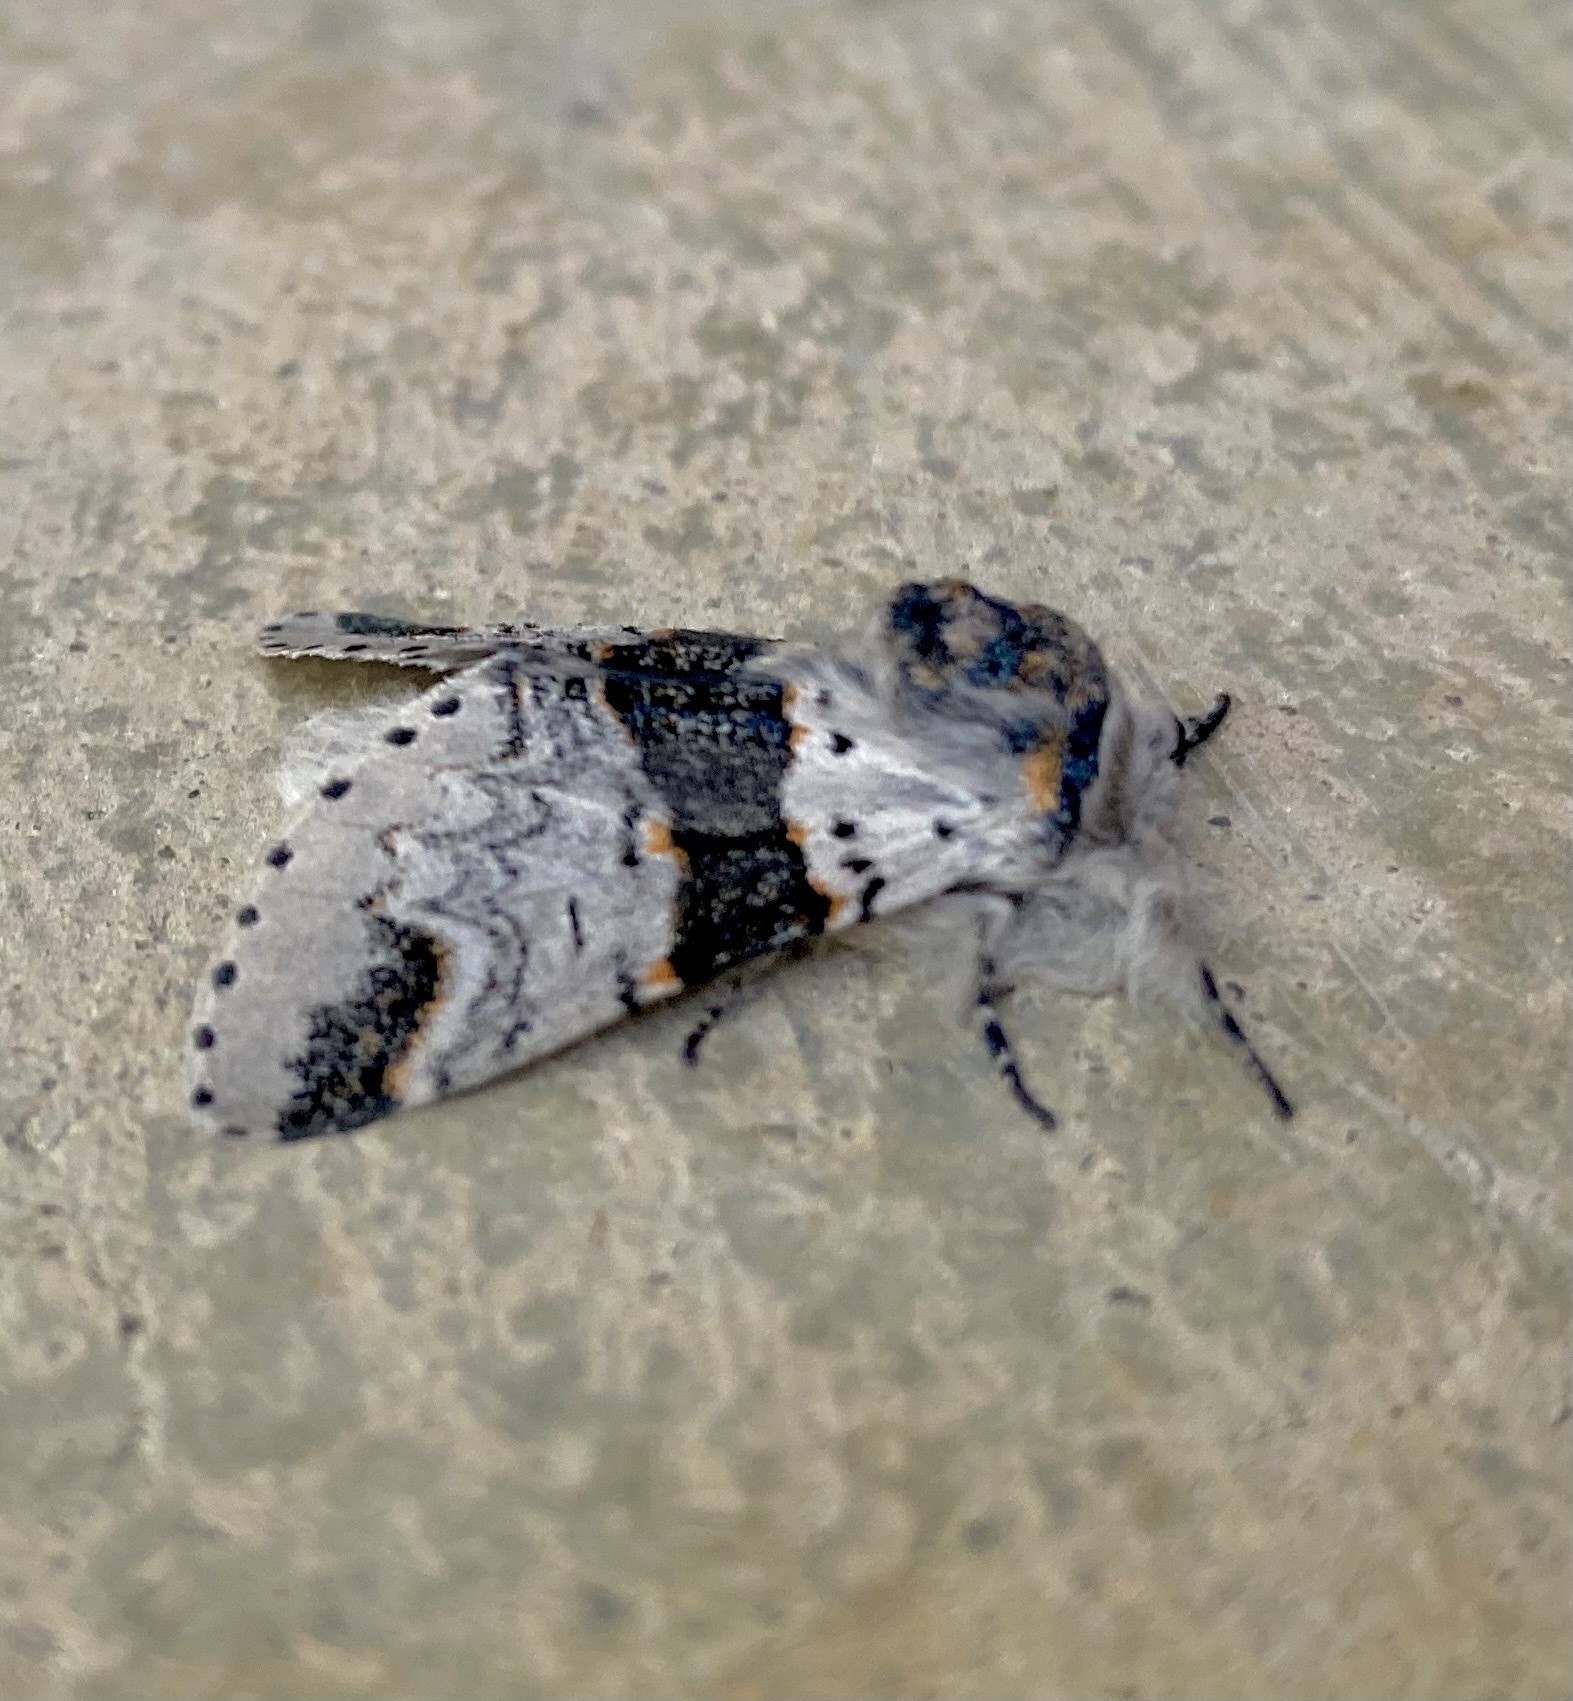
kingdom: Animalia
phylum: Arthropoda
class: Insecta
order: Lepidoptera
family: Notodontidae
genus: Furcula
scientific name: Furcula occidentalis
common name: Western furcula moth
